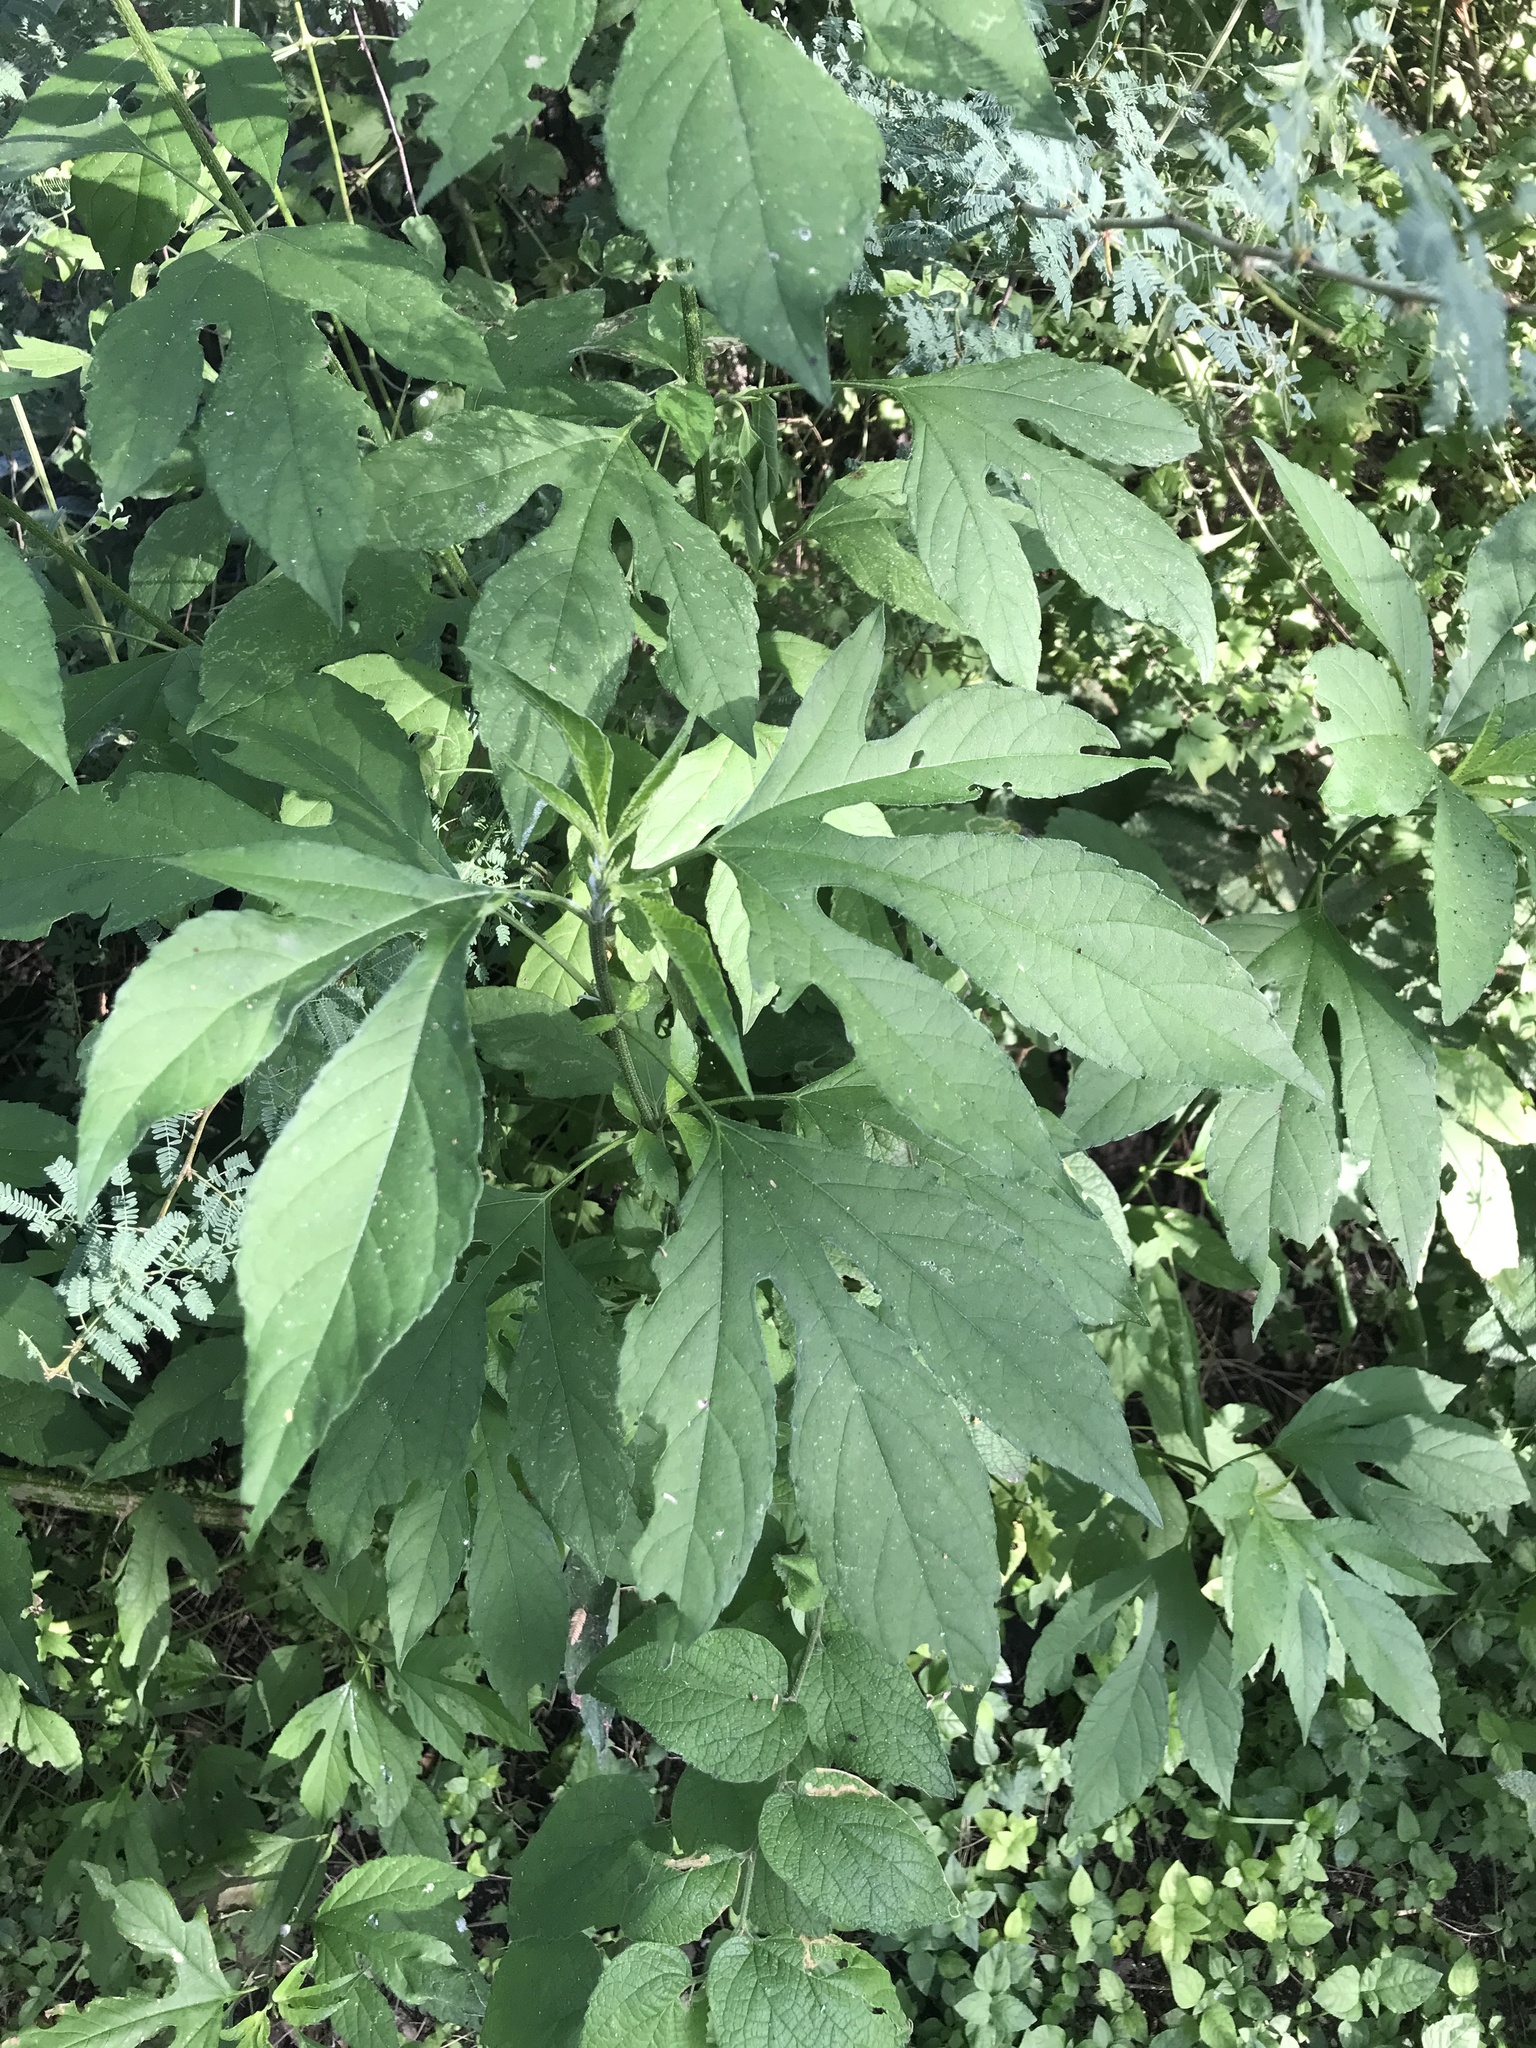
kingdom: Plantae
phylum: Tracheophyta
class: Magnoliopsida
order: Asterales
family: Asteraceae
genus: Ambrosia
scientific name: Ambrosia trifida
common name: Giant ragweed
